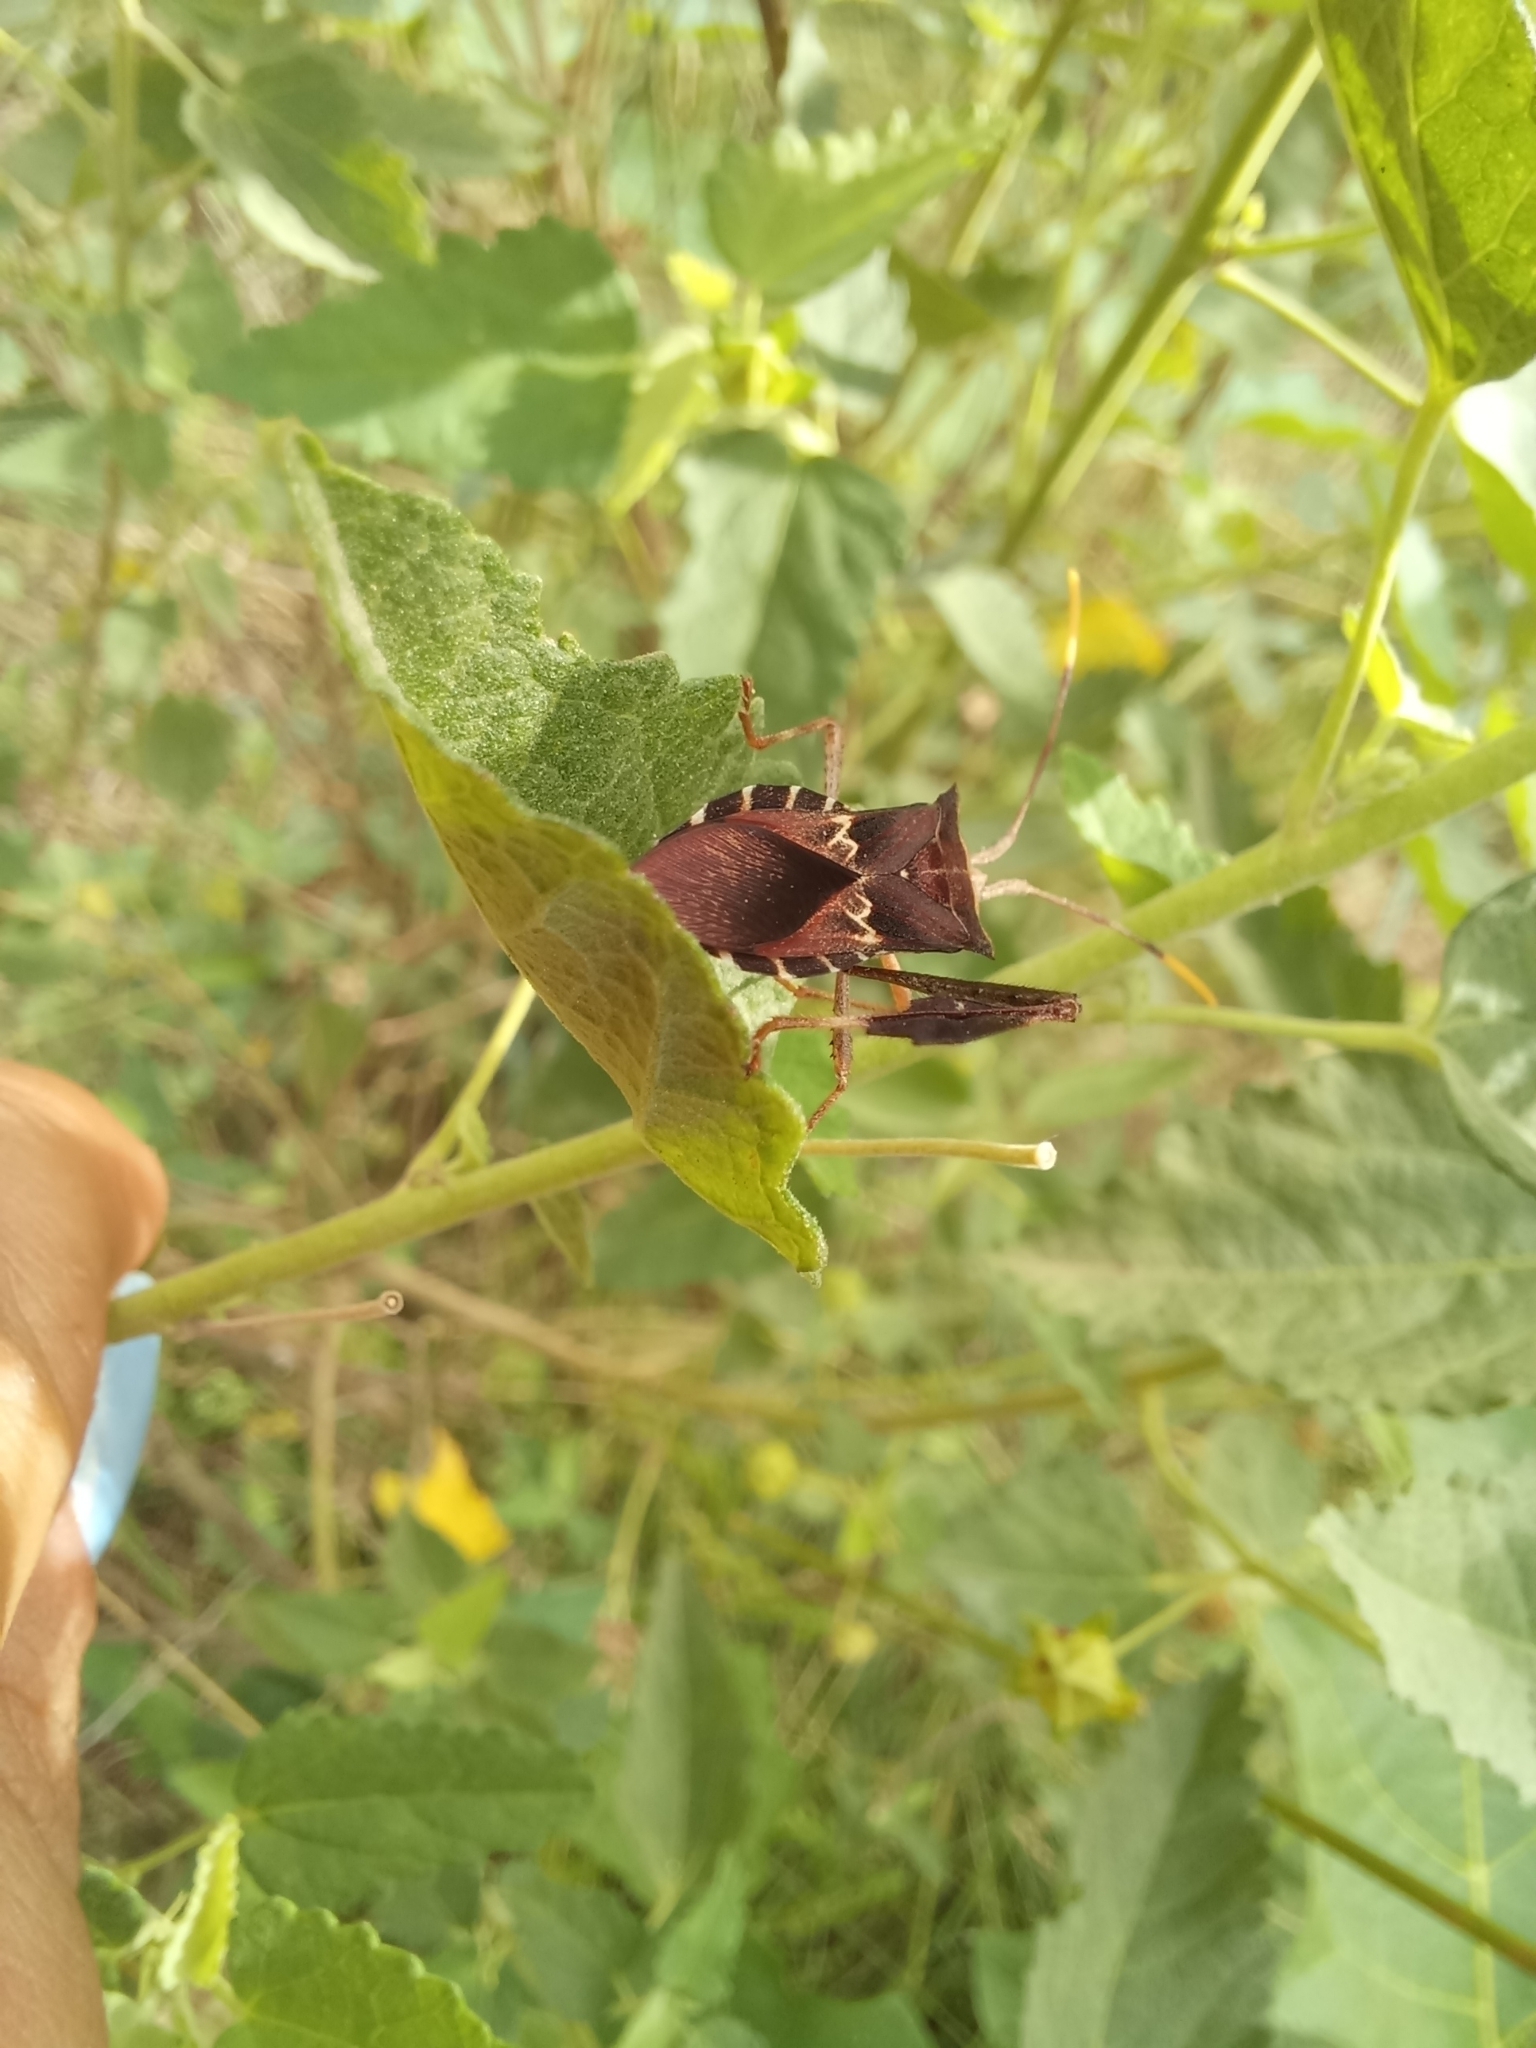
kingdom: Animalia
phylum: Arthropoda
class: Insecta
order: Hemiptera
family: Coreidae
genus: Leptoglossus
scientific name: Leptoglossus neovexillatus
